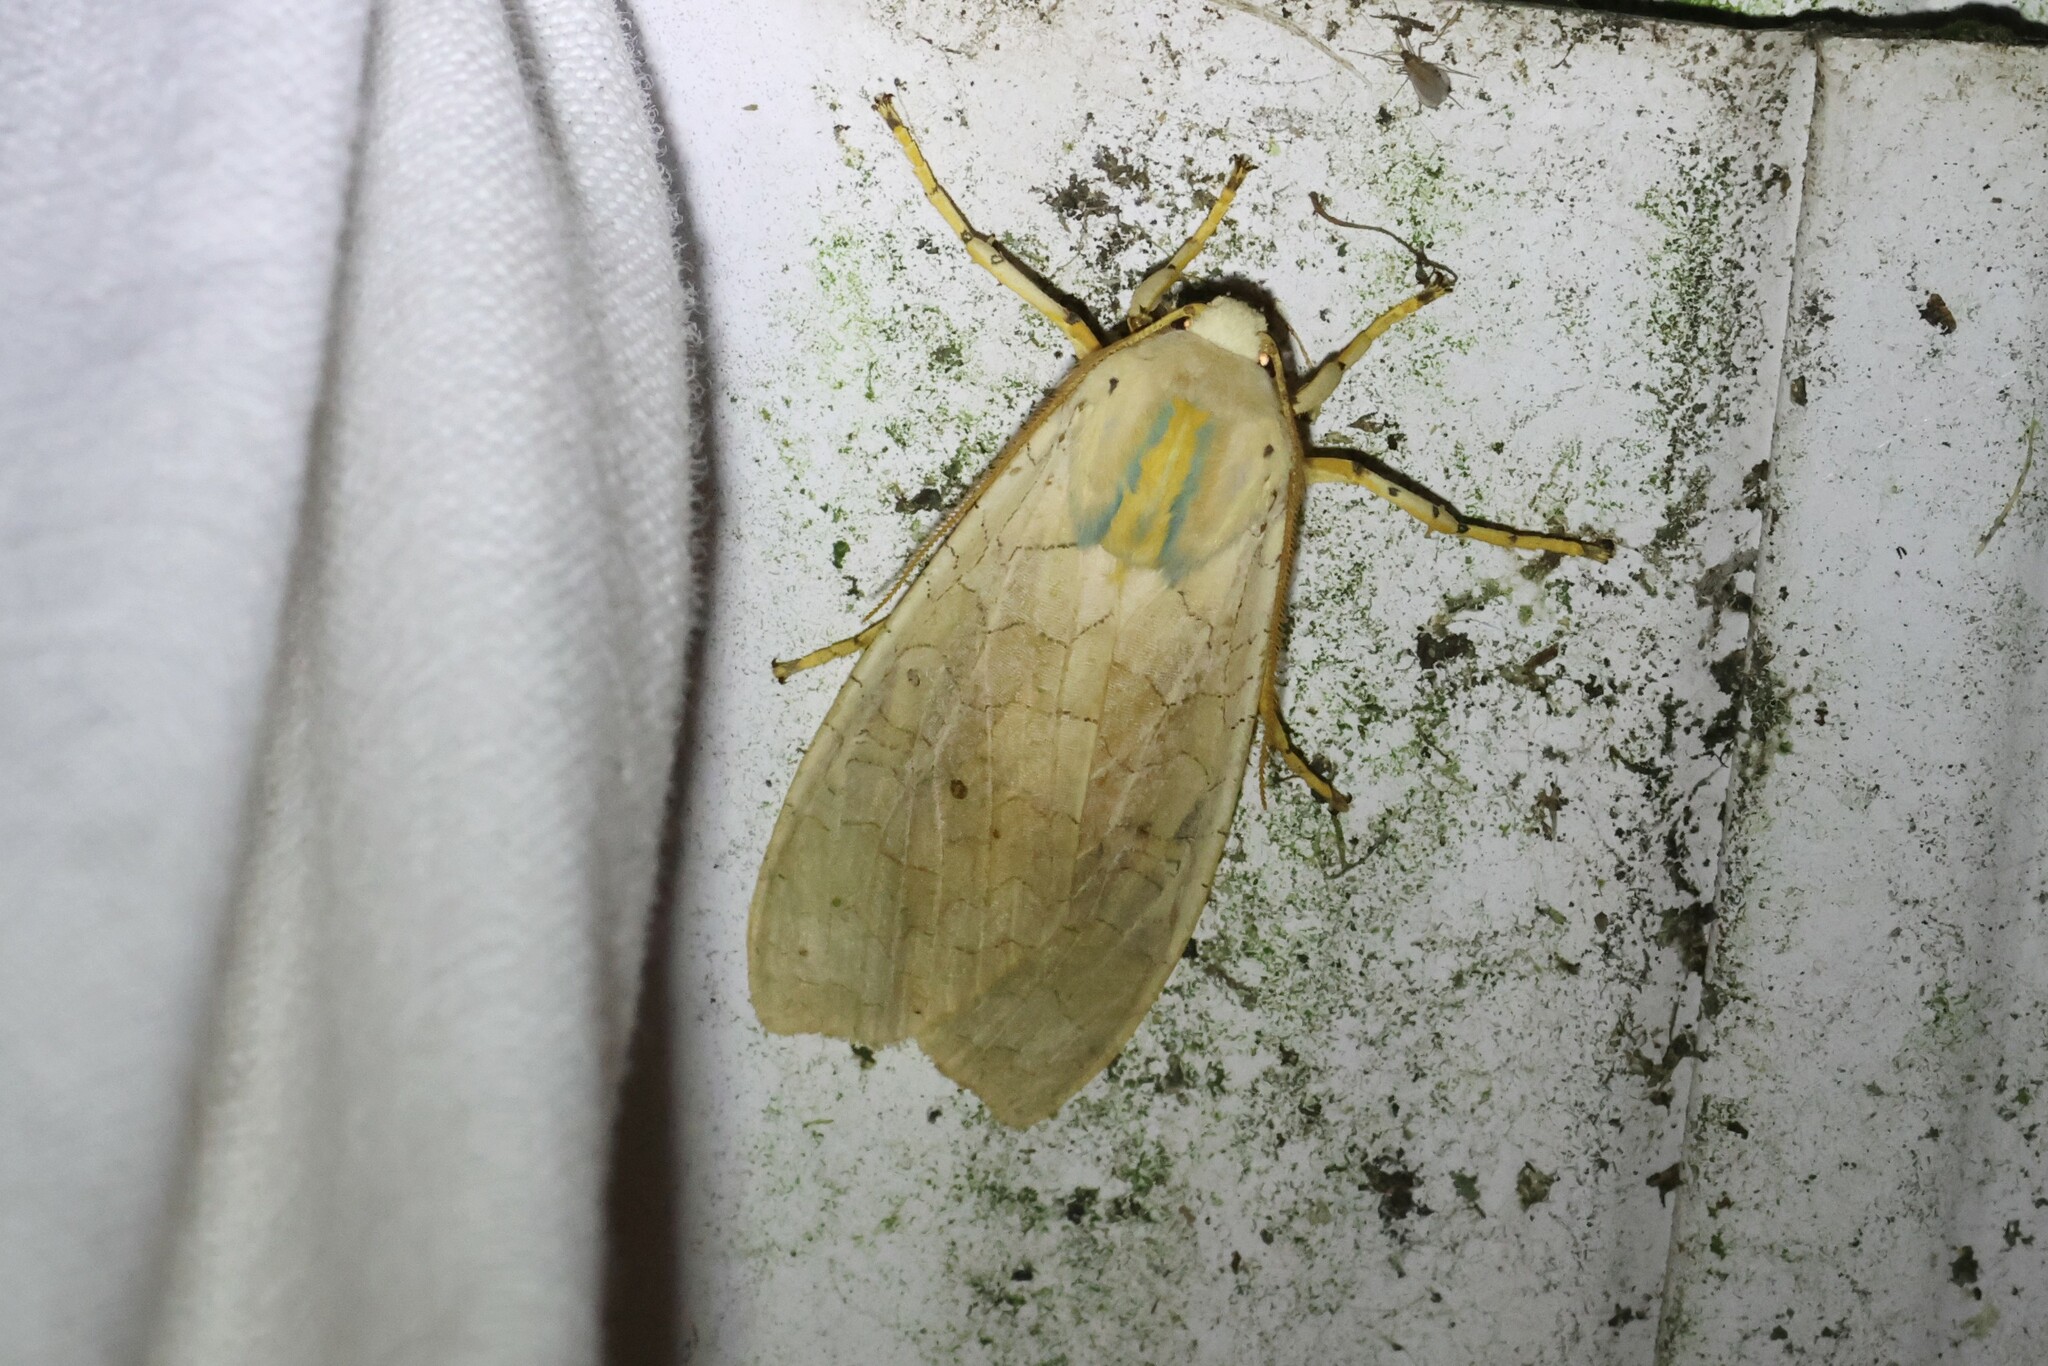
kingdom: Animalia
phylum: Arthropoda
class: Insecta
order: Lepidoptera
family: Erebidae
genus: Halysidota
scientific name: Halysidota tessellaris
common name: Banded tussock moth
